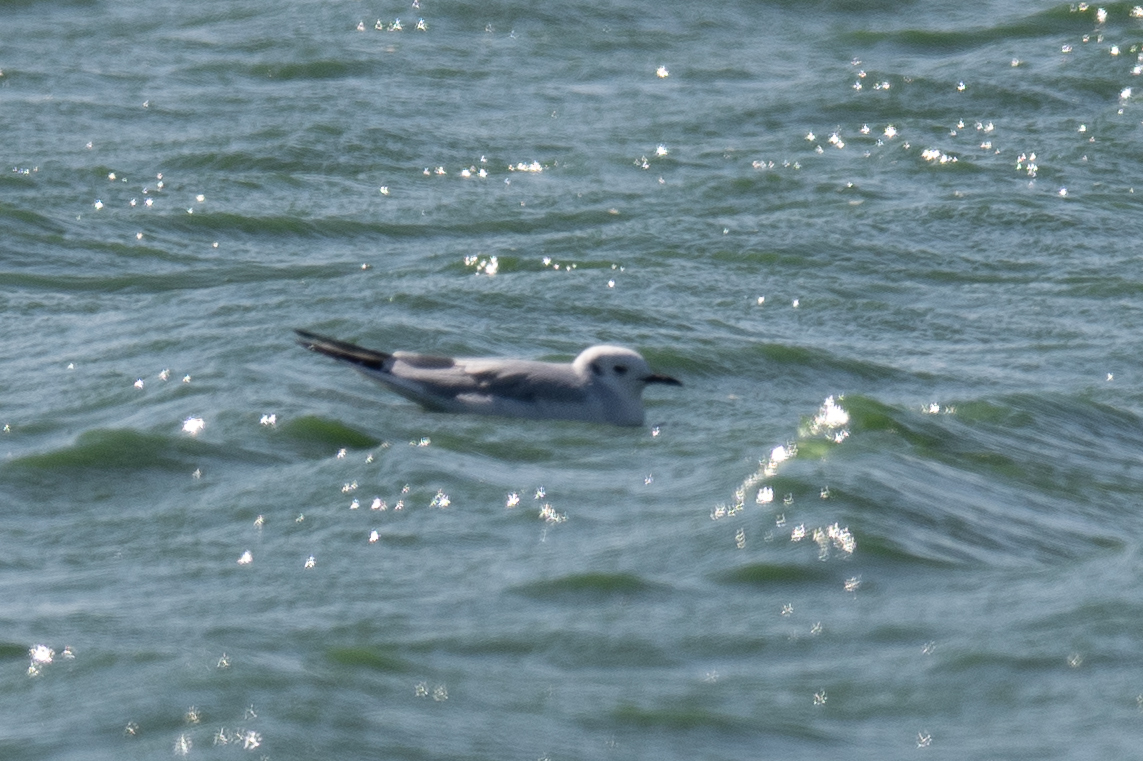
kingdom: Animalia
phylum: Chordata
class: Aves
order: Charadriiformes
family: Laridae
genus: Chroicocephalus
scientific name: Chroicocephalus philadelphia
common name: Bonaparte's gull
